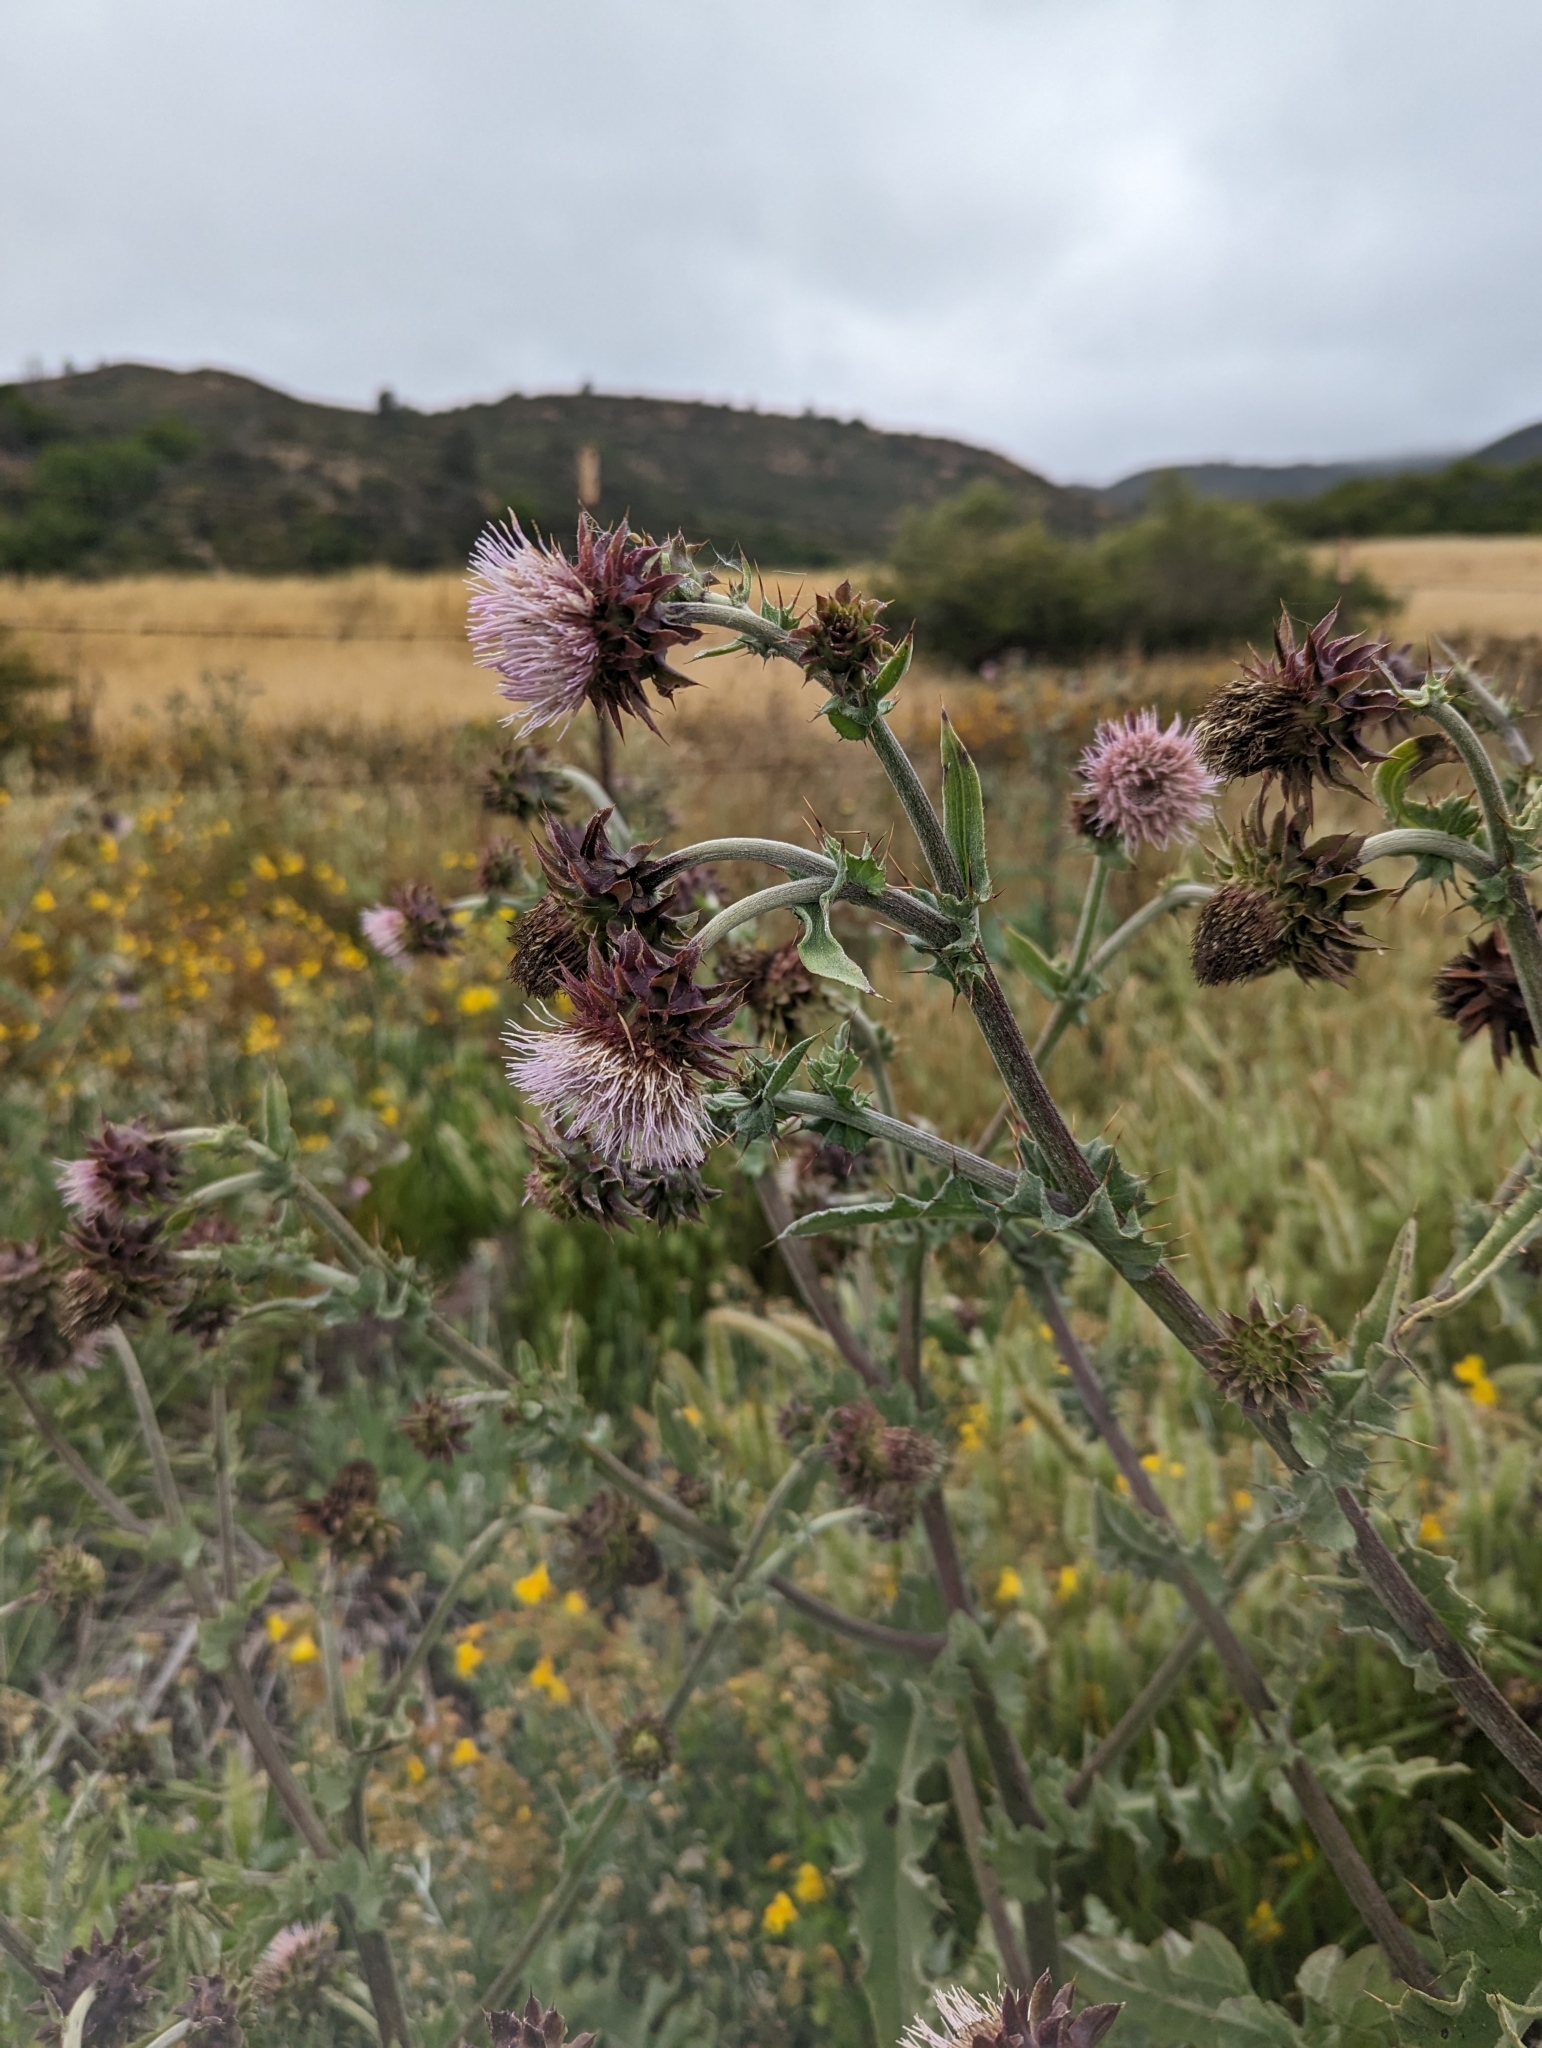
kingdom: Plantae
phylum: Tracheophyta
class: Magnoliopsida
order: Asterales
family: Asteraceae
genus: Cirsium
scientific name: Cirsium fontinale
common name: Fountain thistle
